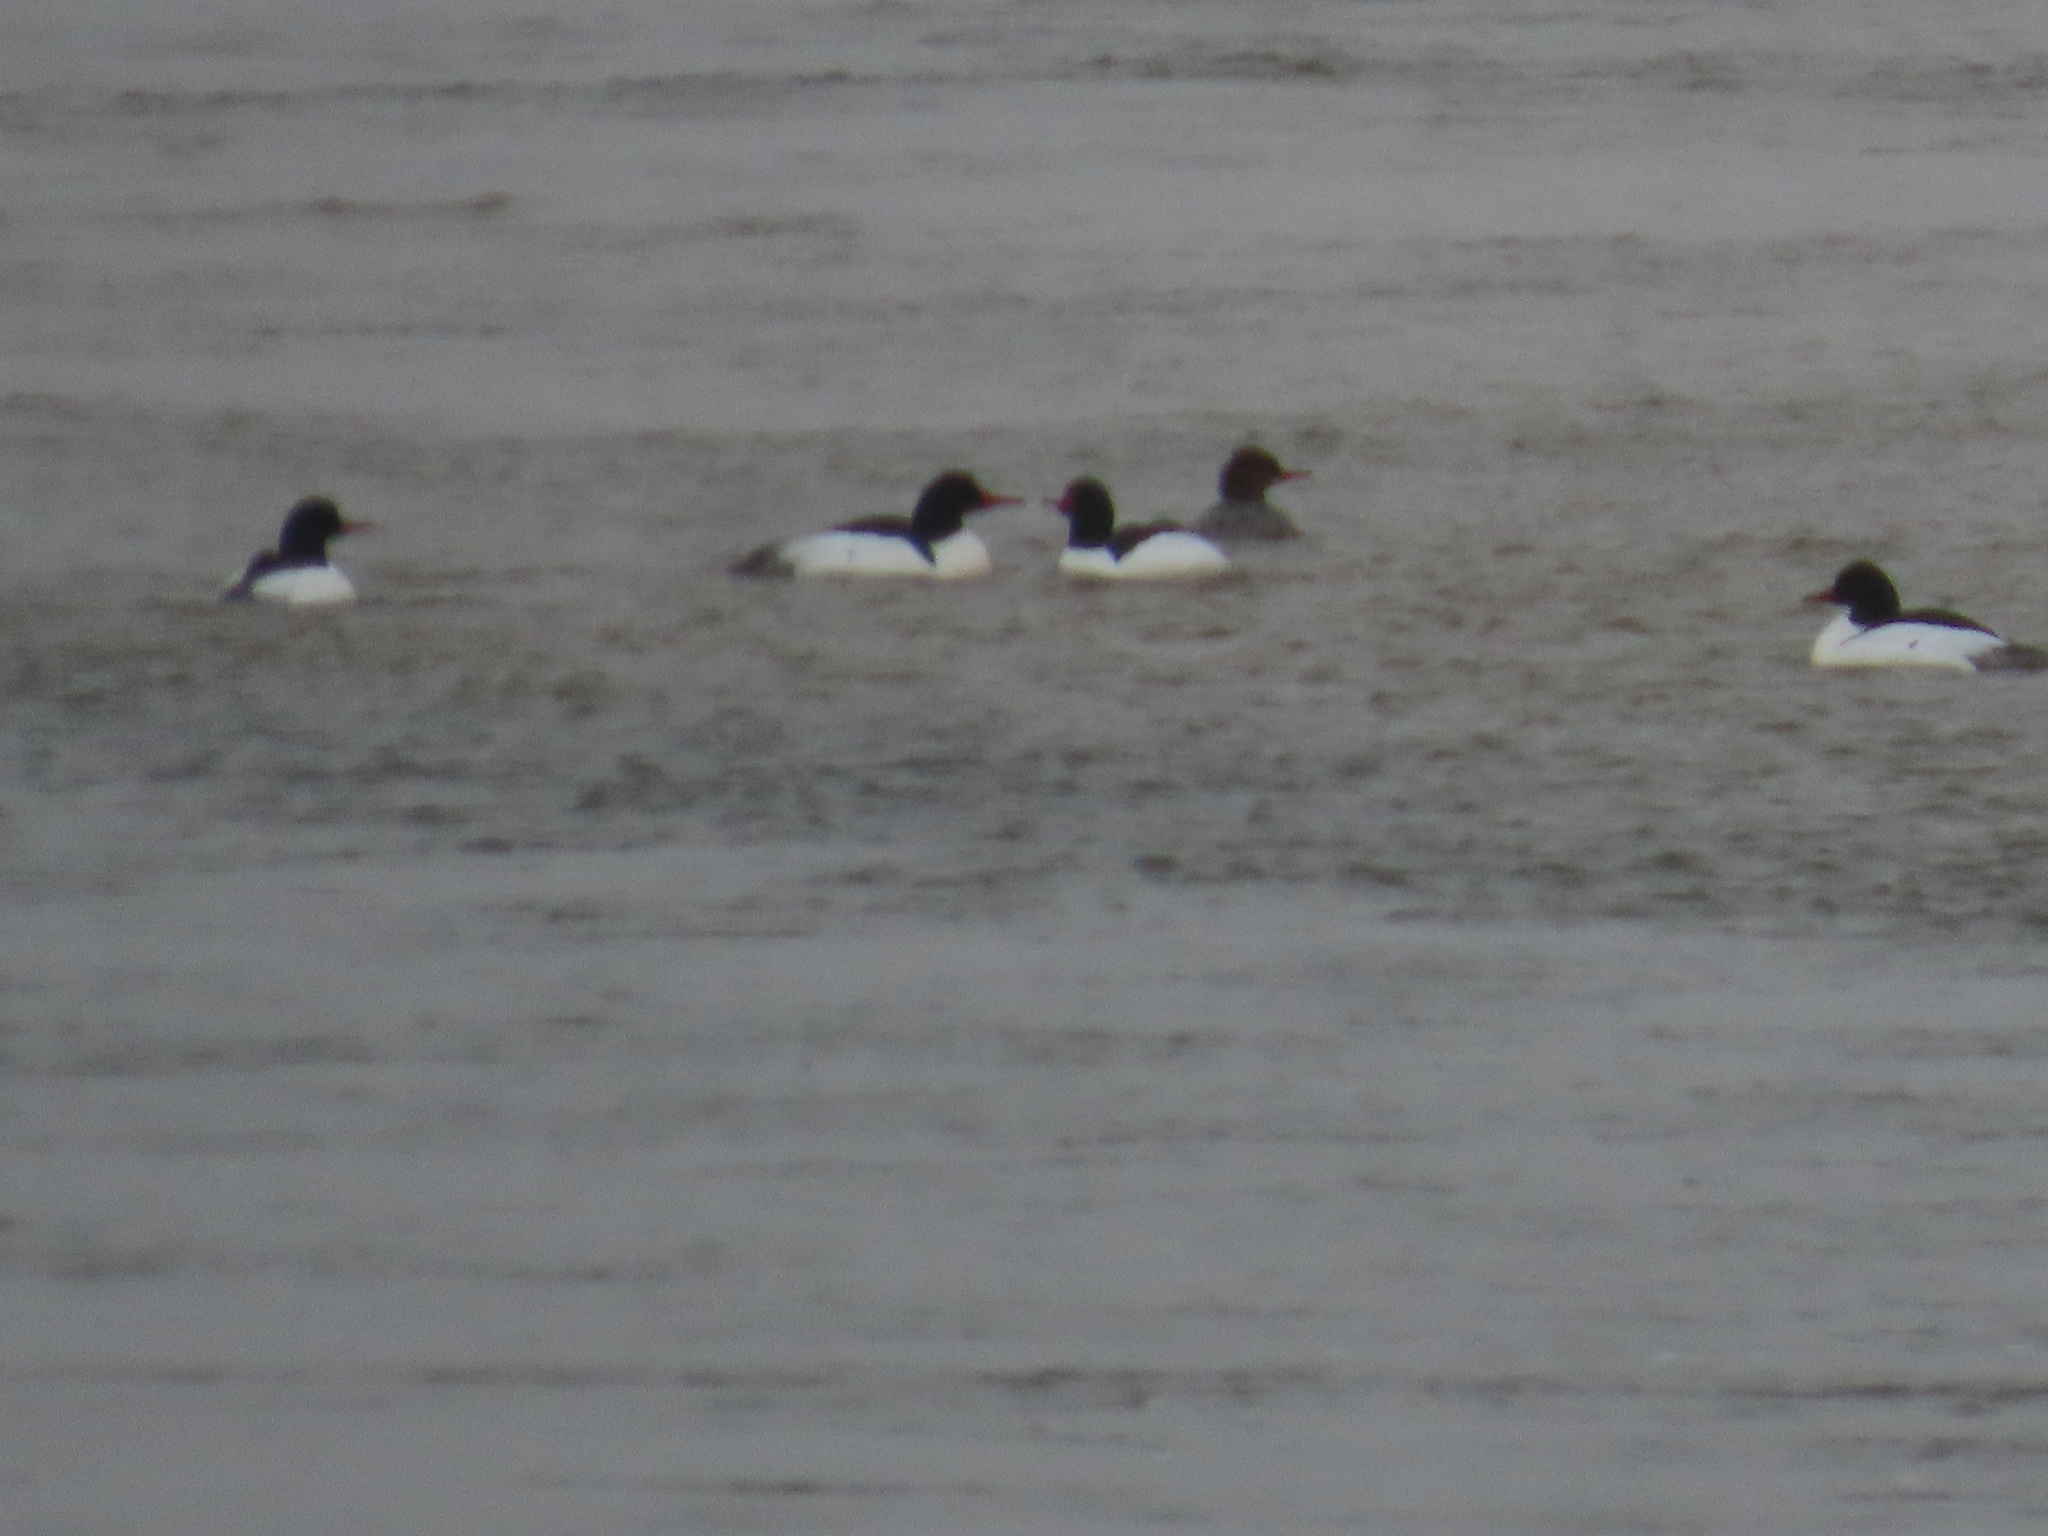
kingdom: Animalia
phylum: Chordata
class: Aves
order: Anseriformes
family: Anatidae
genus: Mergus
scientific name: Mergus merganser
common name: Common merganser
